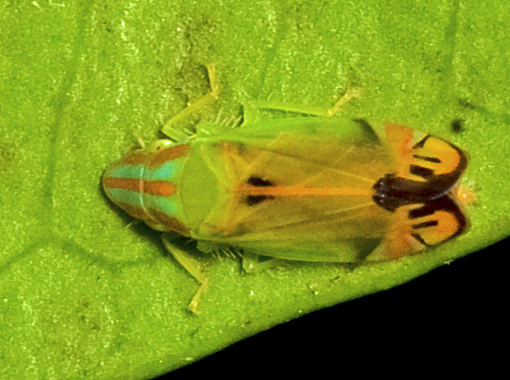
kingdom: Animalia
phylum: Arthropoda
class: Insecta
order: Hemiptera
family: Cicadellidae
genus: Tortor
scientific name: Tortor dorrigensis
